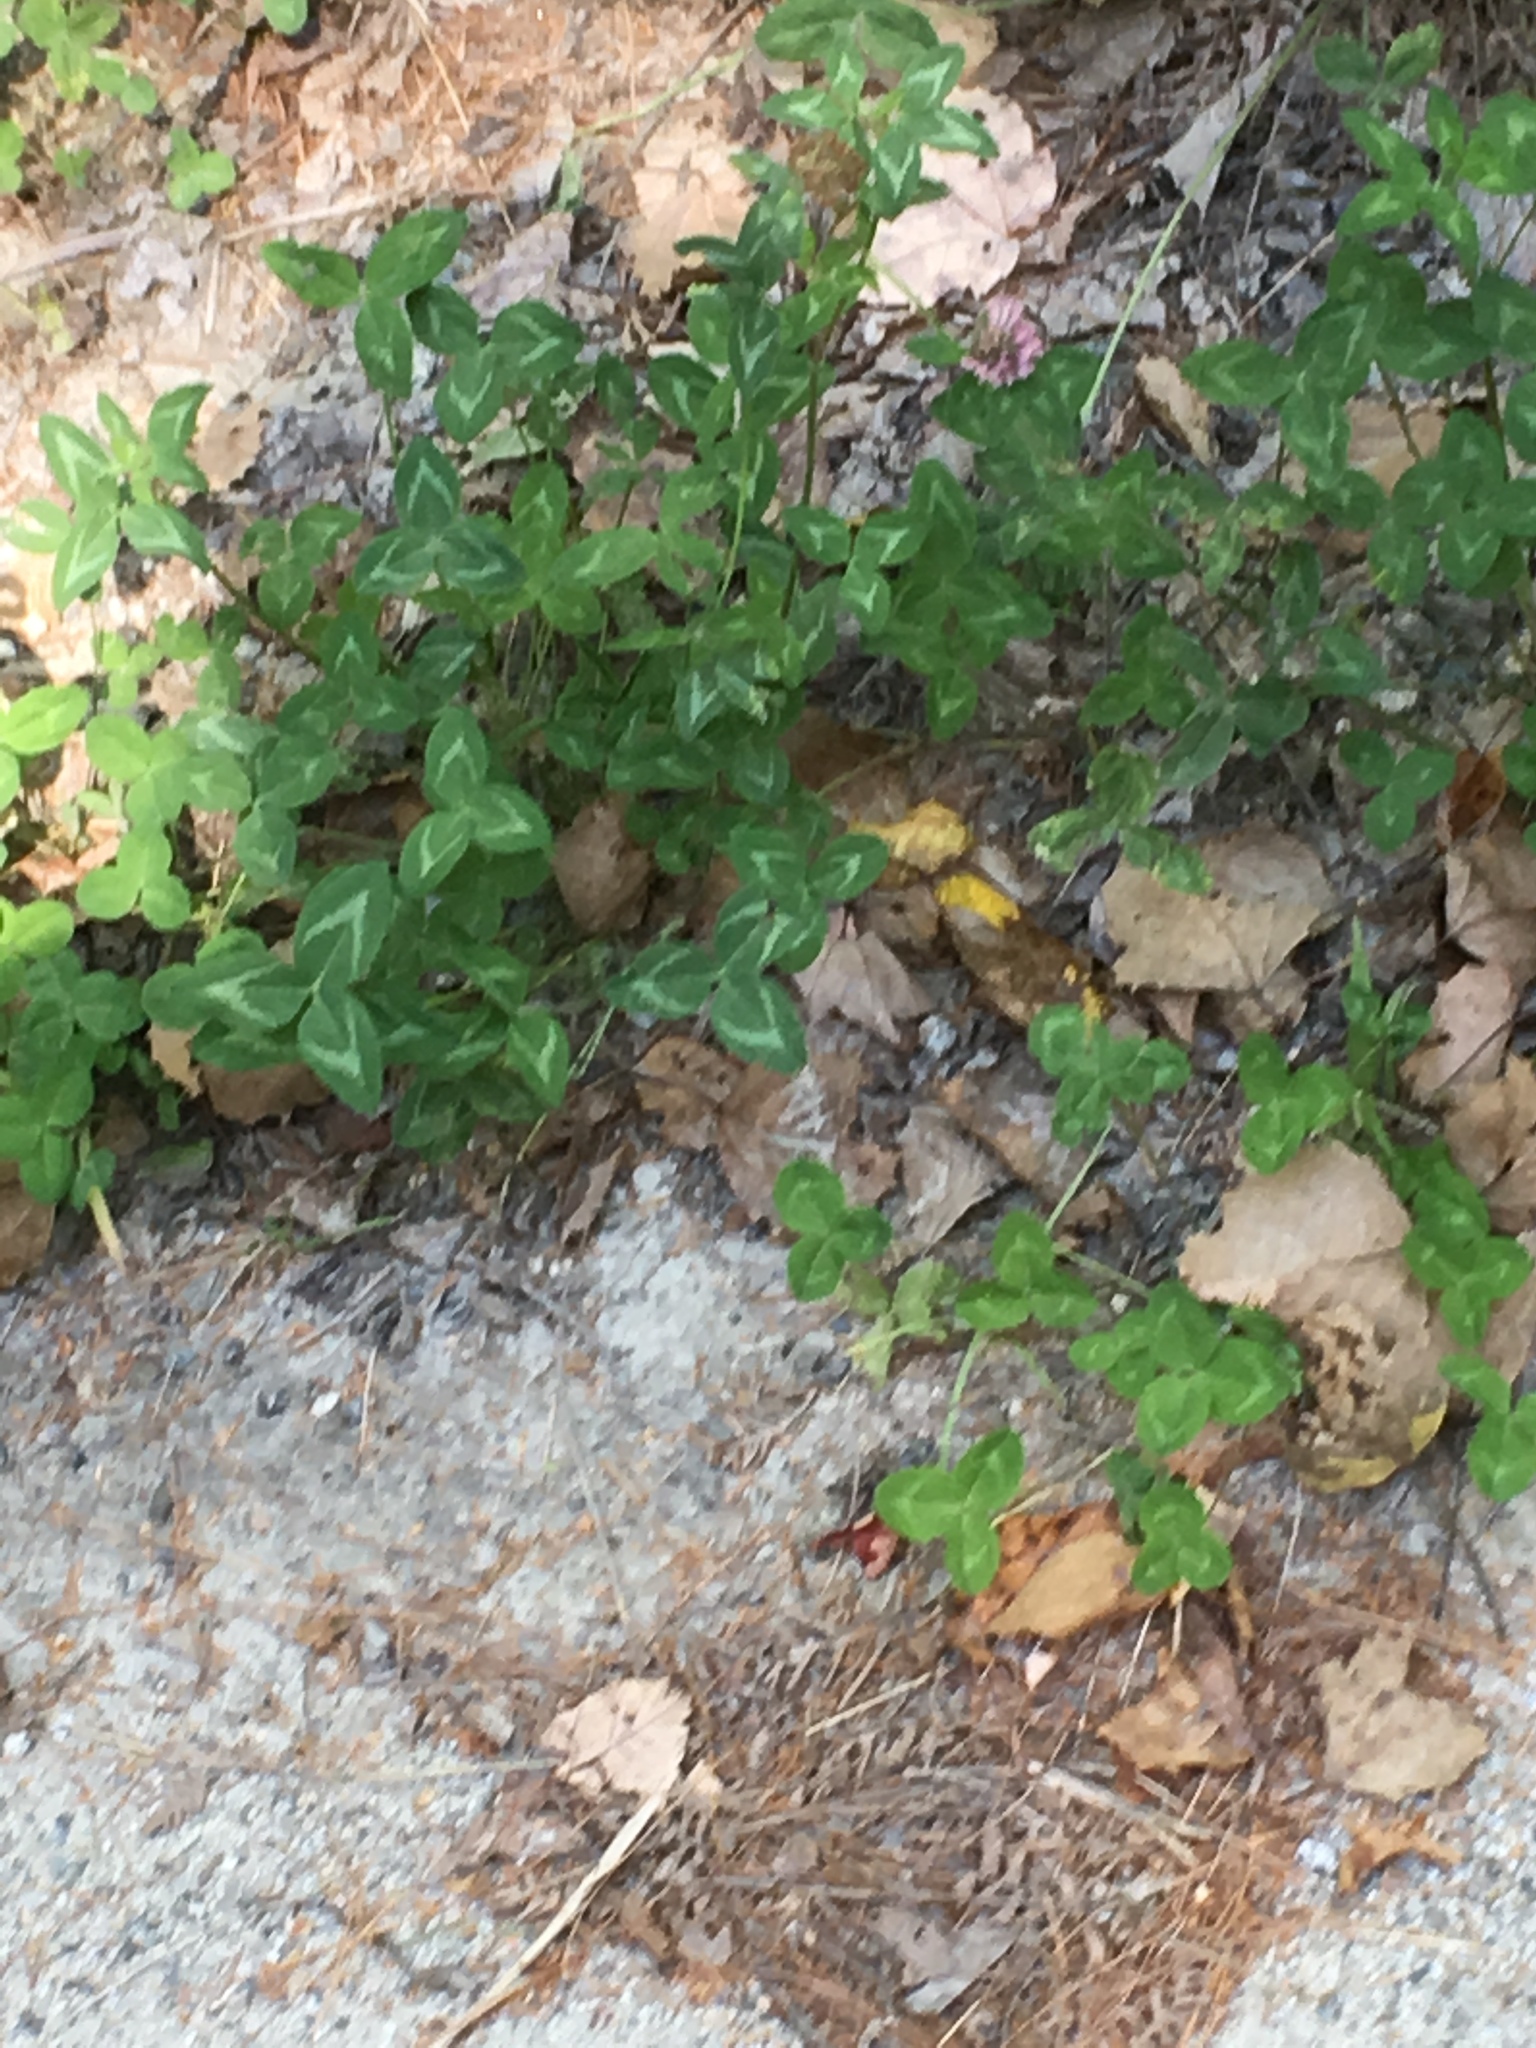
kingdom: Plantae
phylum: Tracheophyta
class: Magnoliopsida
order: Fabales
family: Fabaceae
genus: Trifolium
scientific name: Trifolium pratense
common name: Red clover
